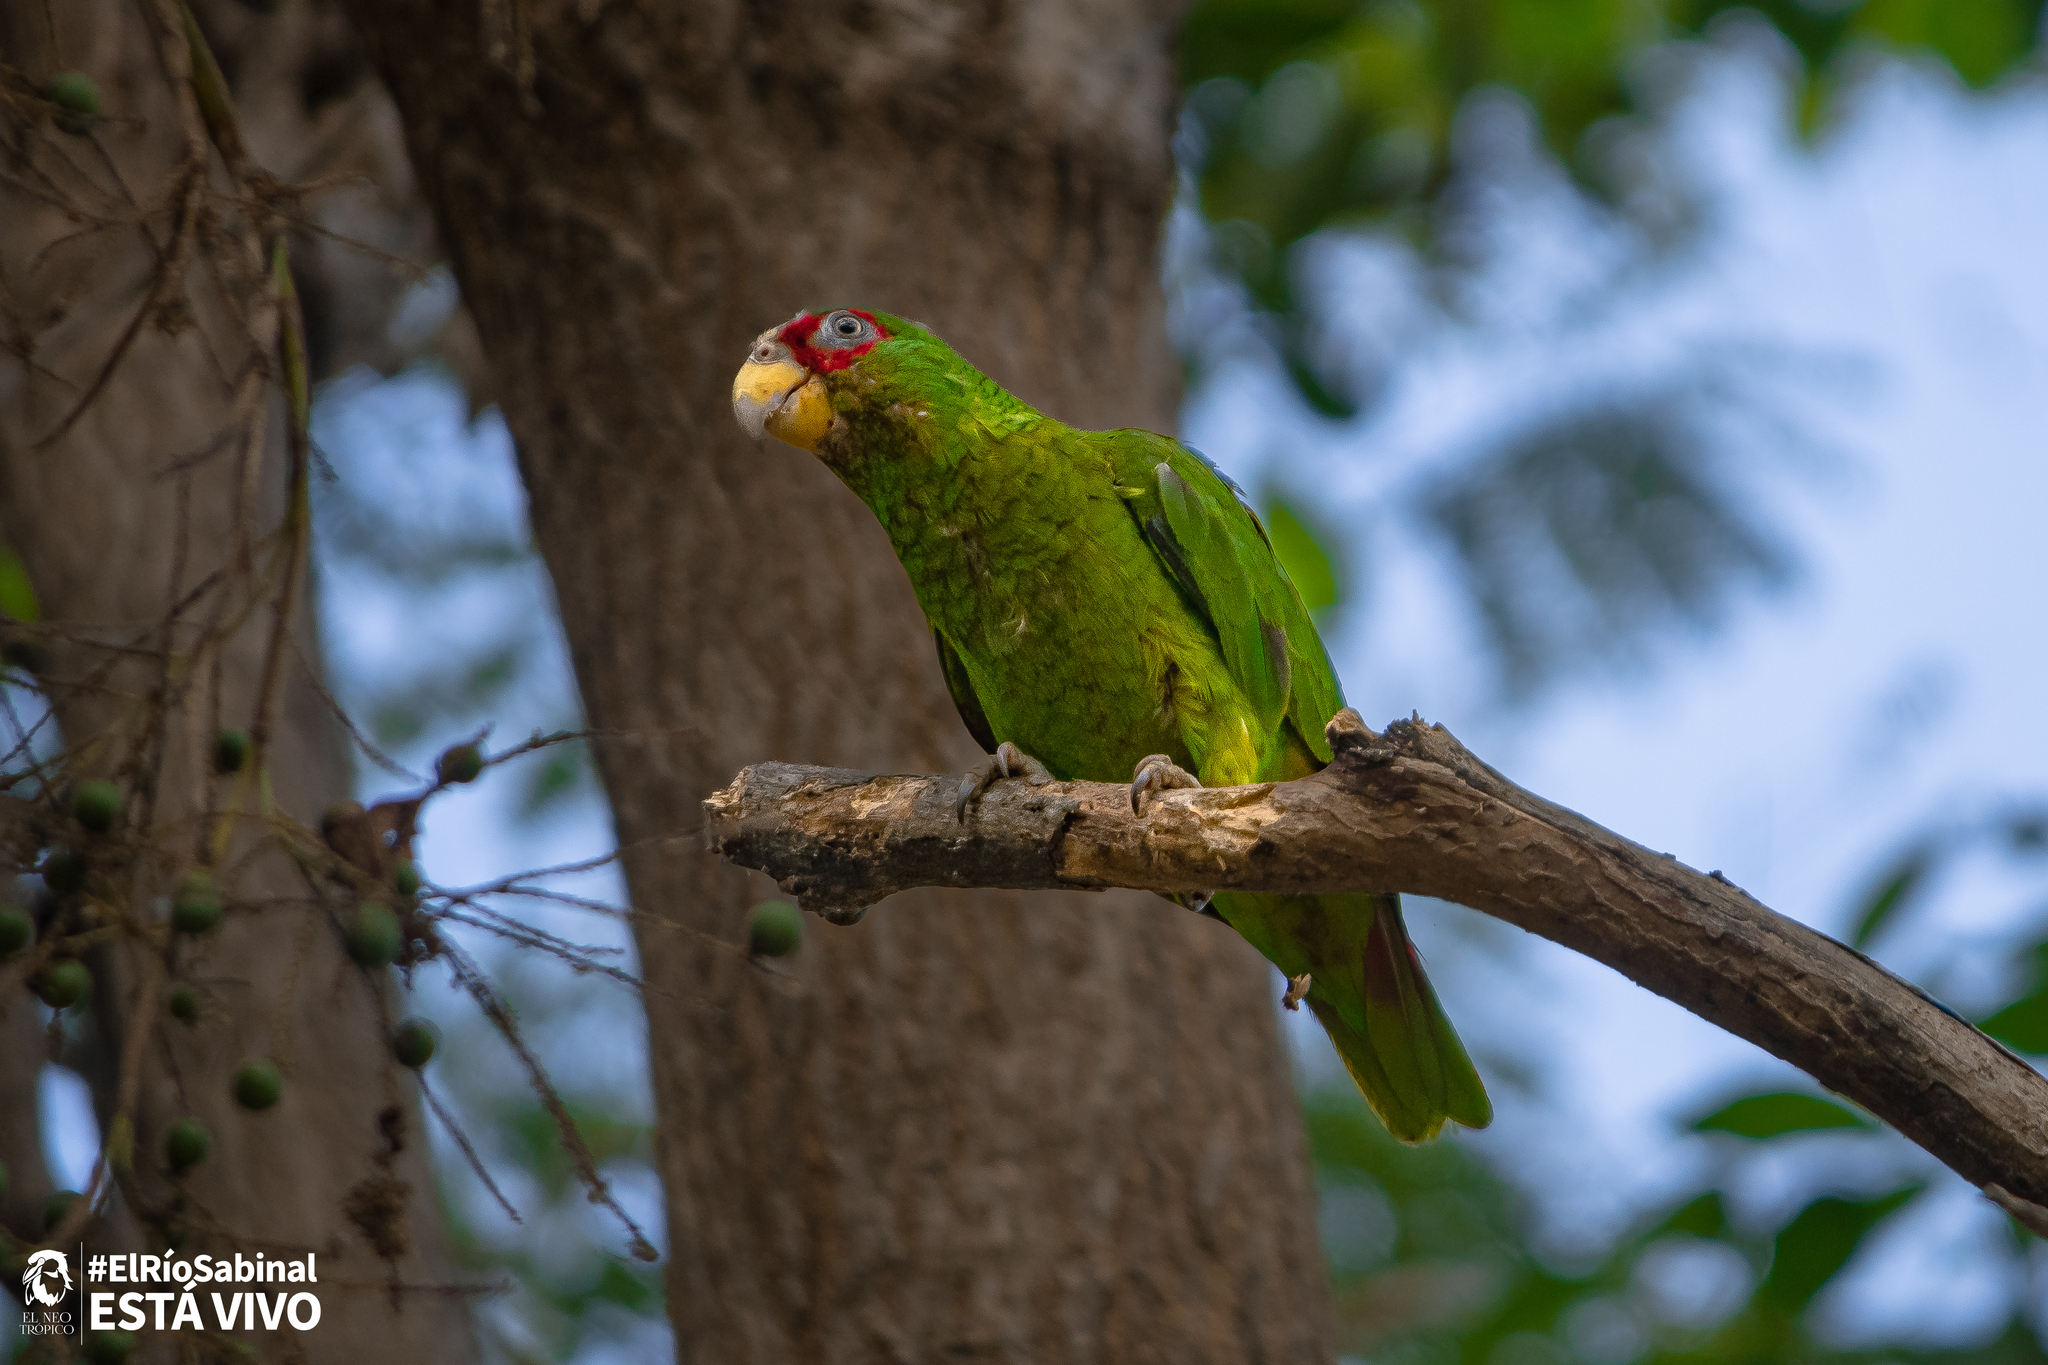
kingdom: Animalia
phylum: Chordata
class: Aves
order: Psittaciformes
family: Psittacidae
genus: Amazona
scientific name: Amazona albifrons
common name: White-fronted amazon
